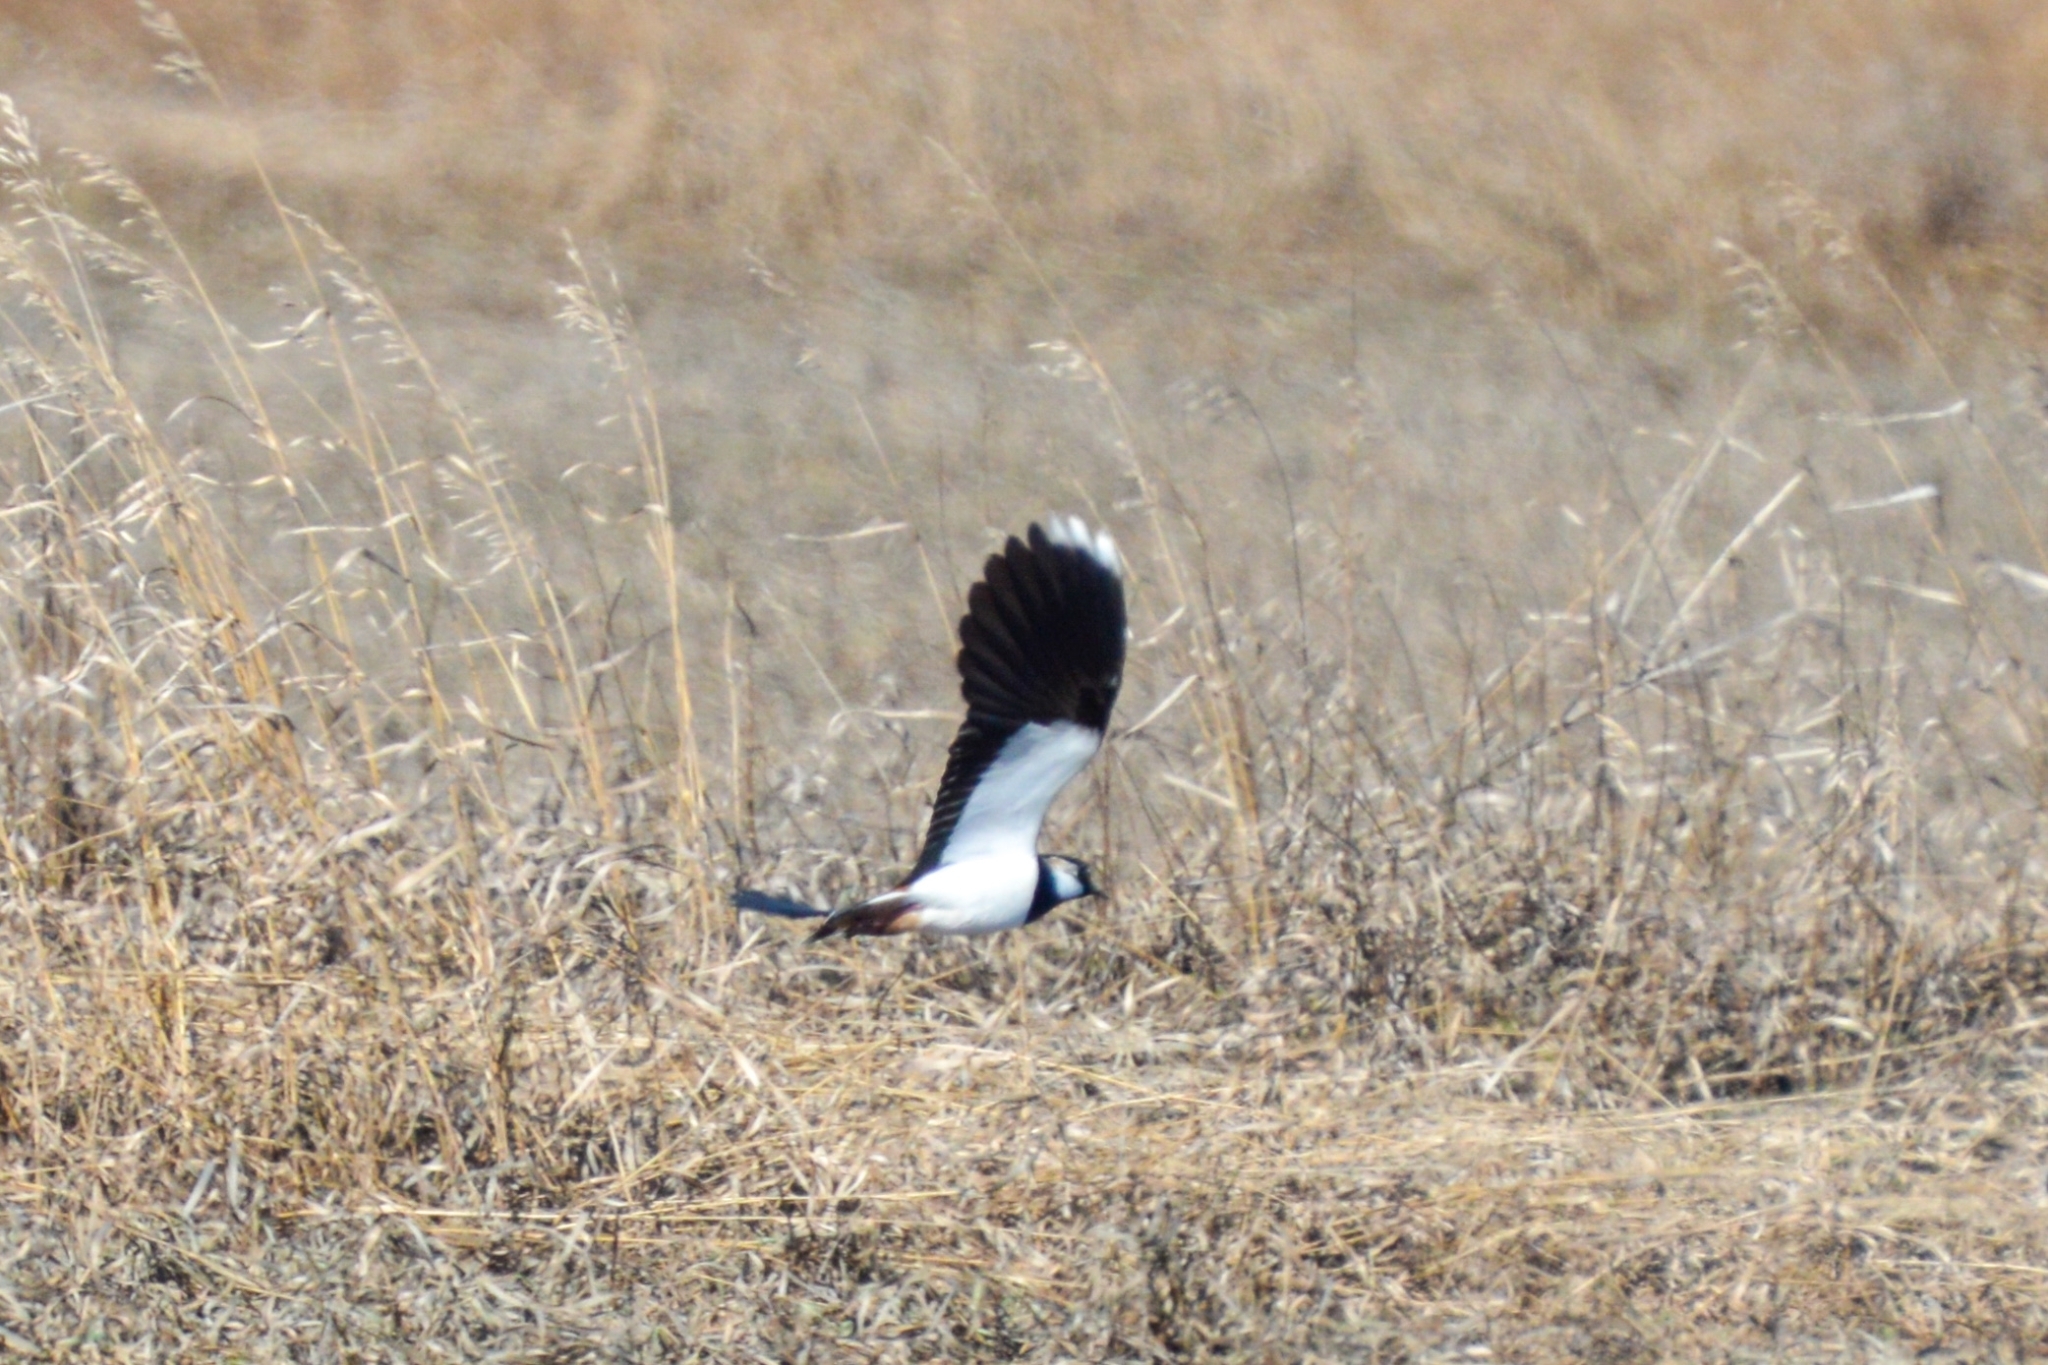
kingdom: Animalia
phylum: Chordata
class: Aves
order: Charadriiformes
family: Charadriidae
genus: Vanellus
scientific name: Vanellus vanellus
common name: Northern lapwing
